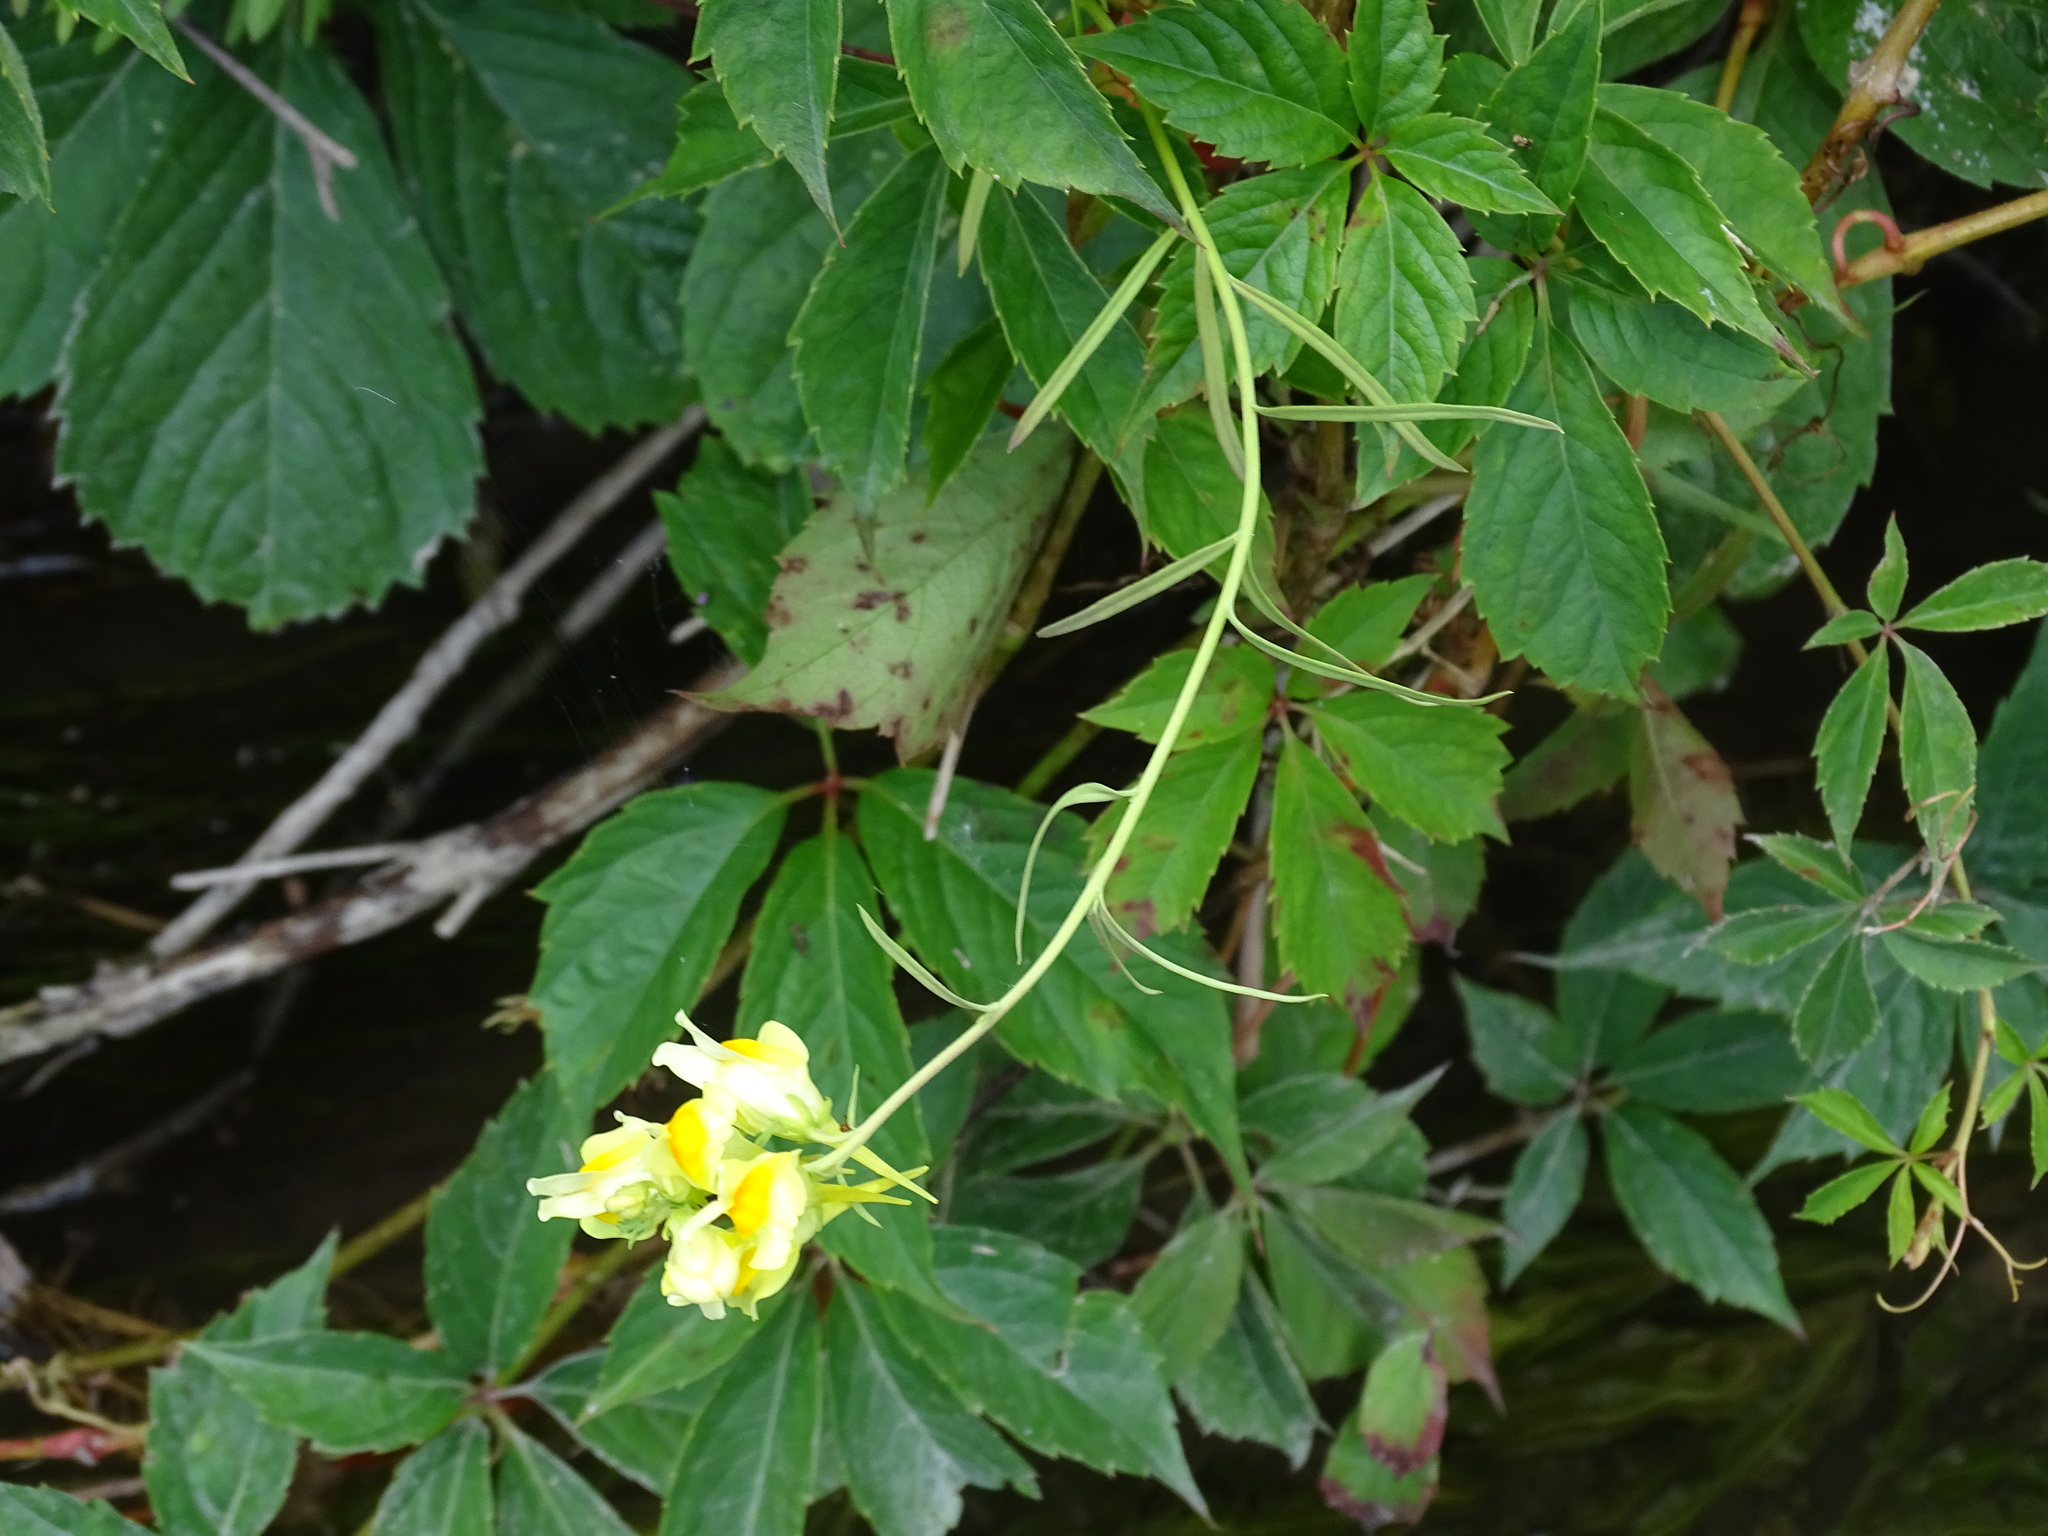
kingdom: Plantae
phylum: Tracheophyta
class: Magnoliopsida
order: Lamiales
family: Plantaginaceae
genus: Linaria
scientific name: Linaria vulgaris
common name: Butter and eggs
